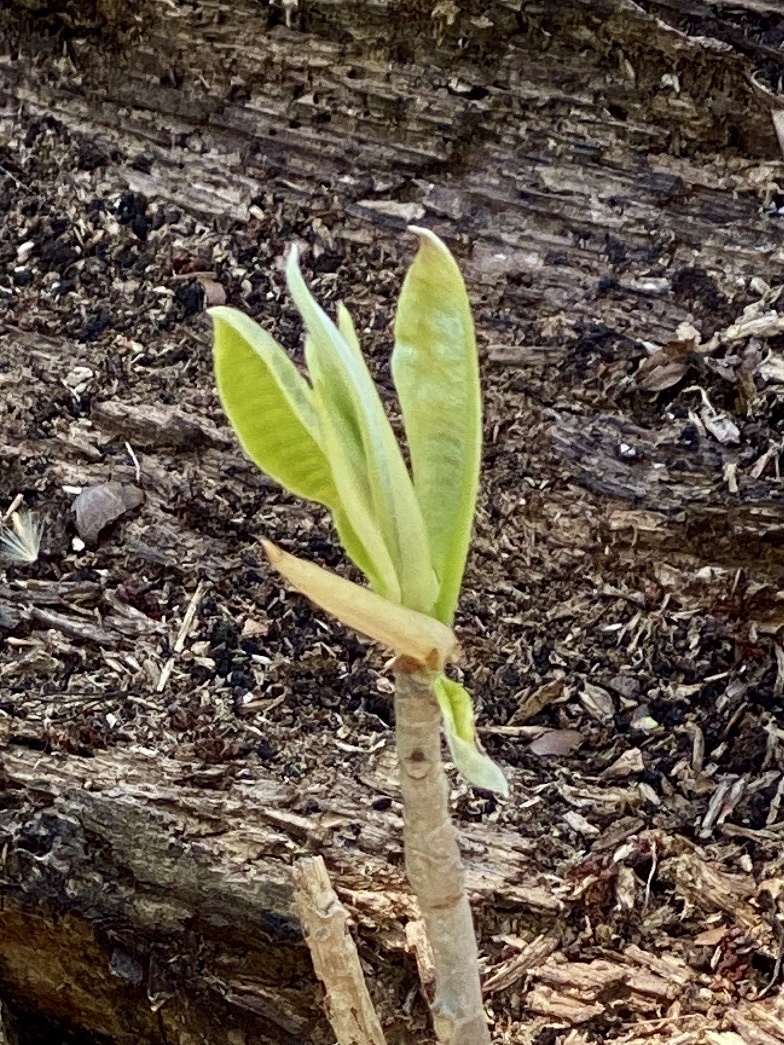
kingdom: Plantae
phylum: Tracheophyta
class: Magnoliopsida
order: Magnoliales
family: Magnoliaceae
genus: Magnolia
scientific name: Magnolia tripetala
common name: Umbrella magnolia
